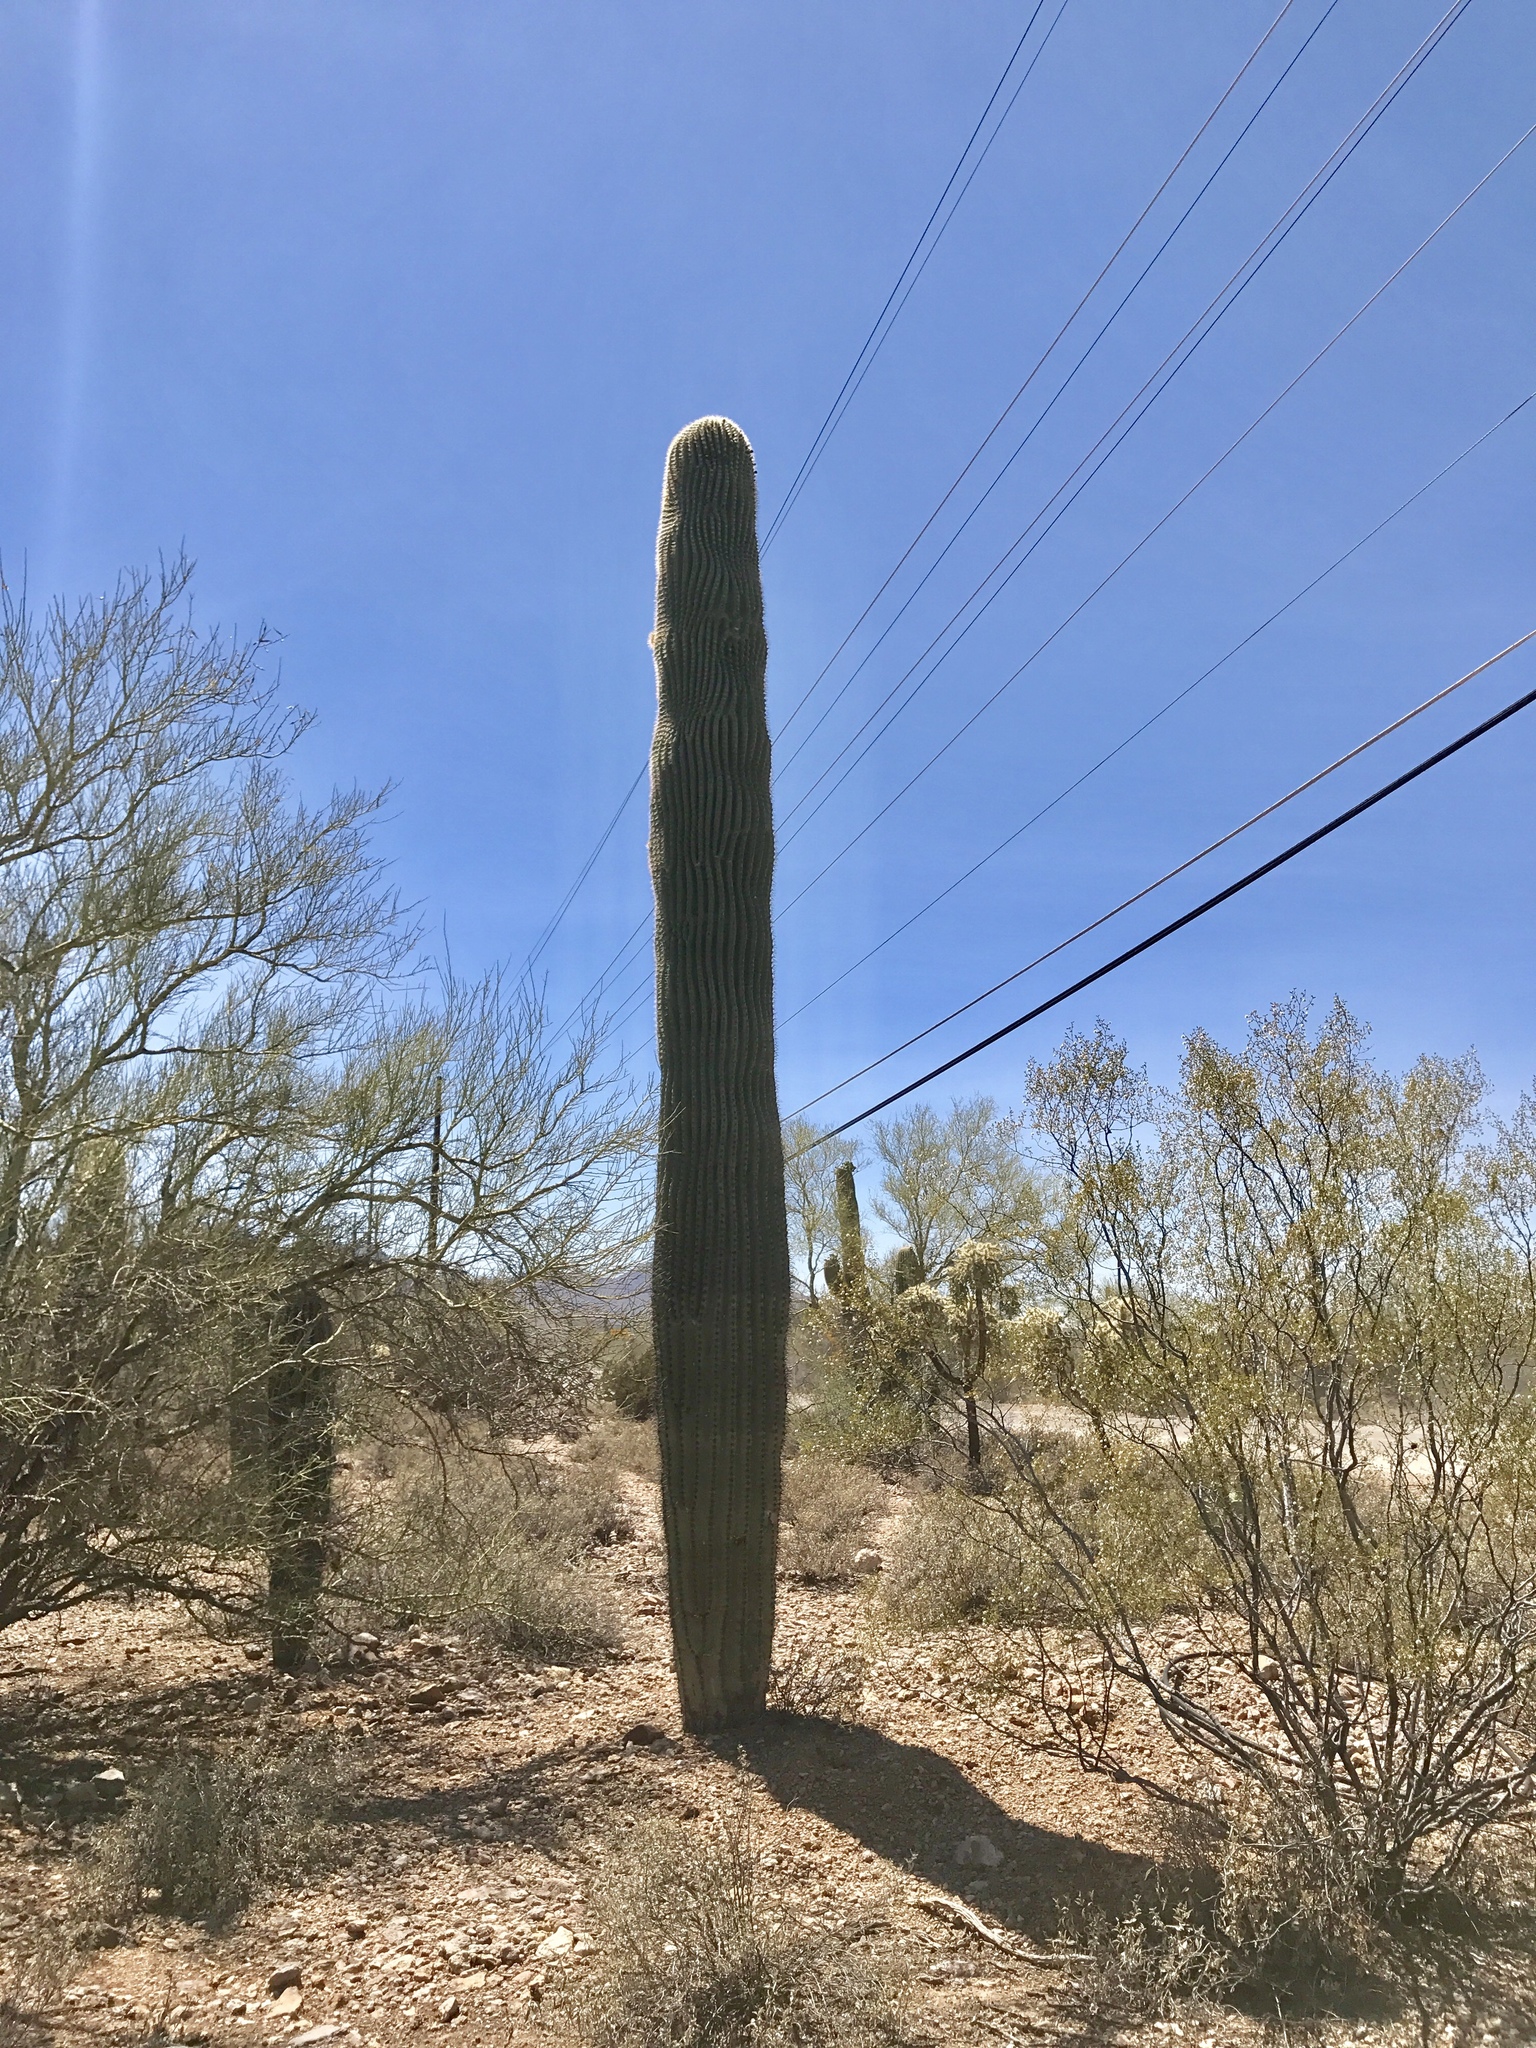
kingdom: Plantae
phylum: Tracheophyta
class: Magnoliopsida
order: Caryophyllales
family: Cactaceae
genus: Carnegiea
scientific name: Carnegiea gigantea
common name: Saguaro
